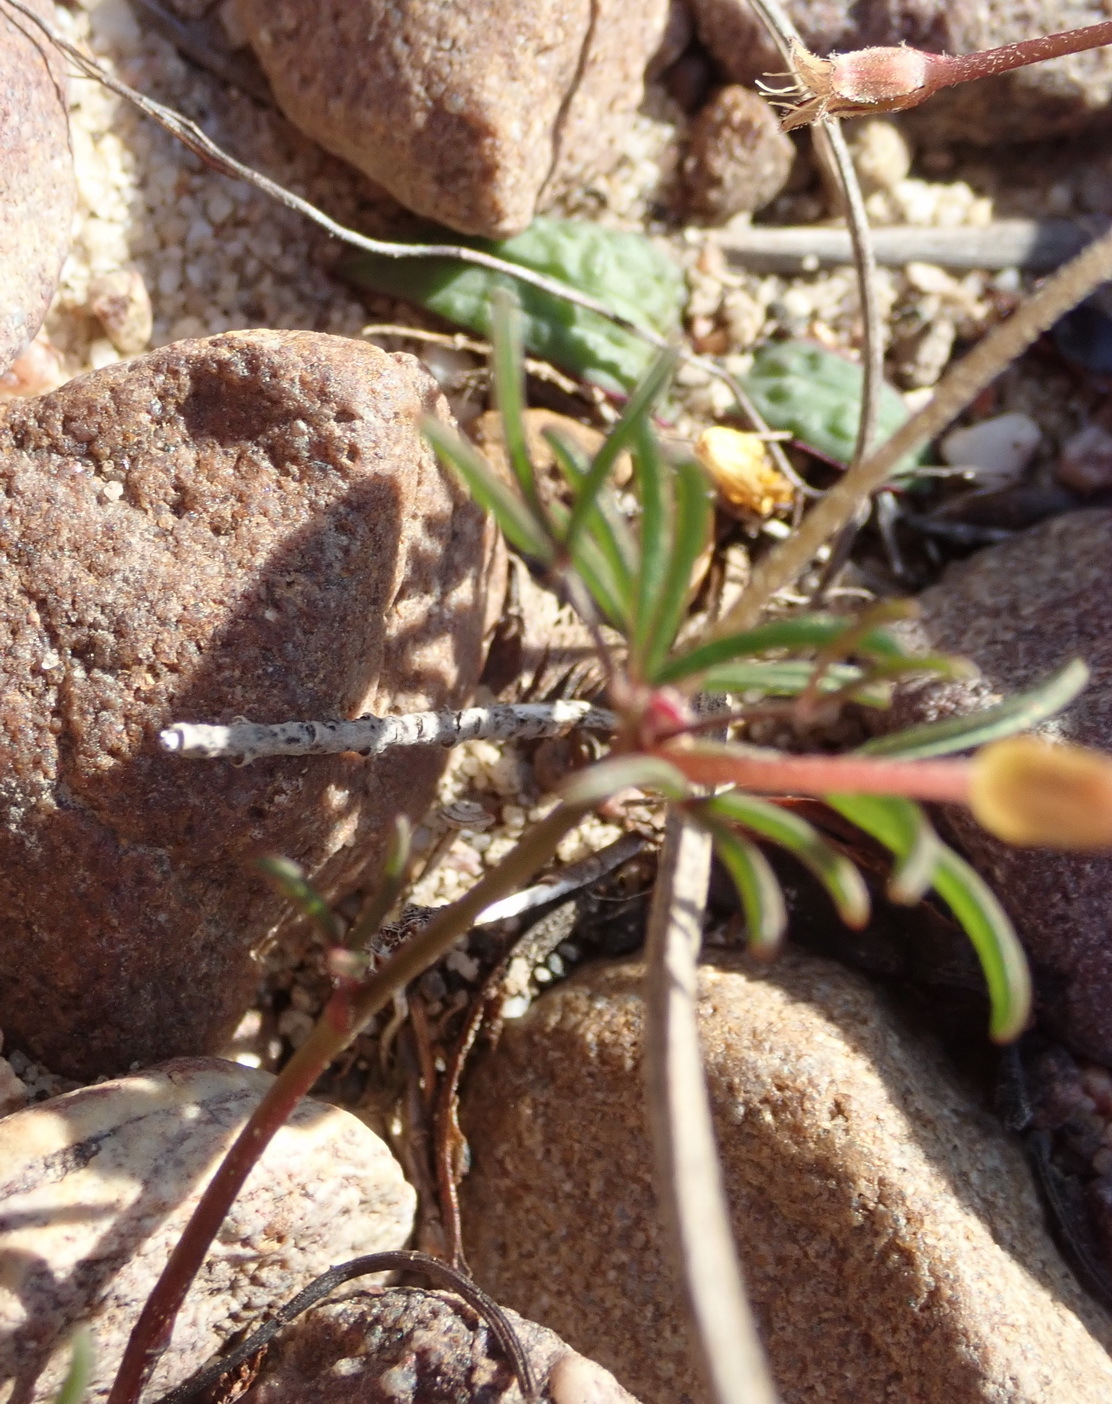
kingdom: Plantae
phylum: Tracheophyta
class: Magnoliopsida
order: Oxalidales
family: Oxalidaceae
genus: Oxalis
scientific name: Oxalis versicolor
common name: Peppermint rock oxalis
